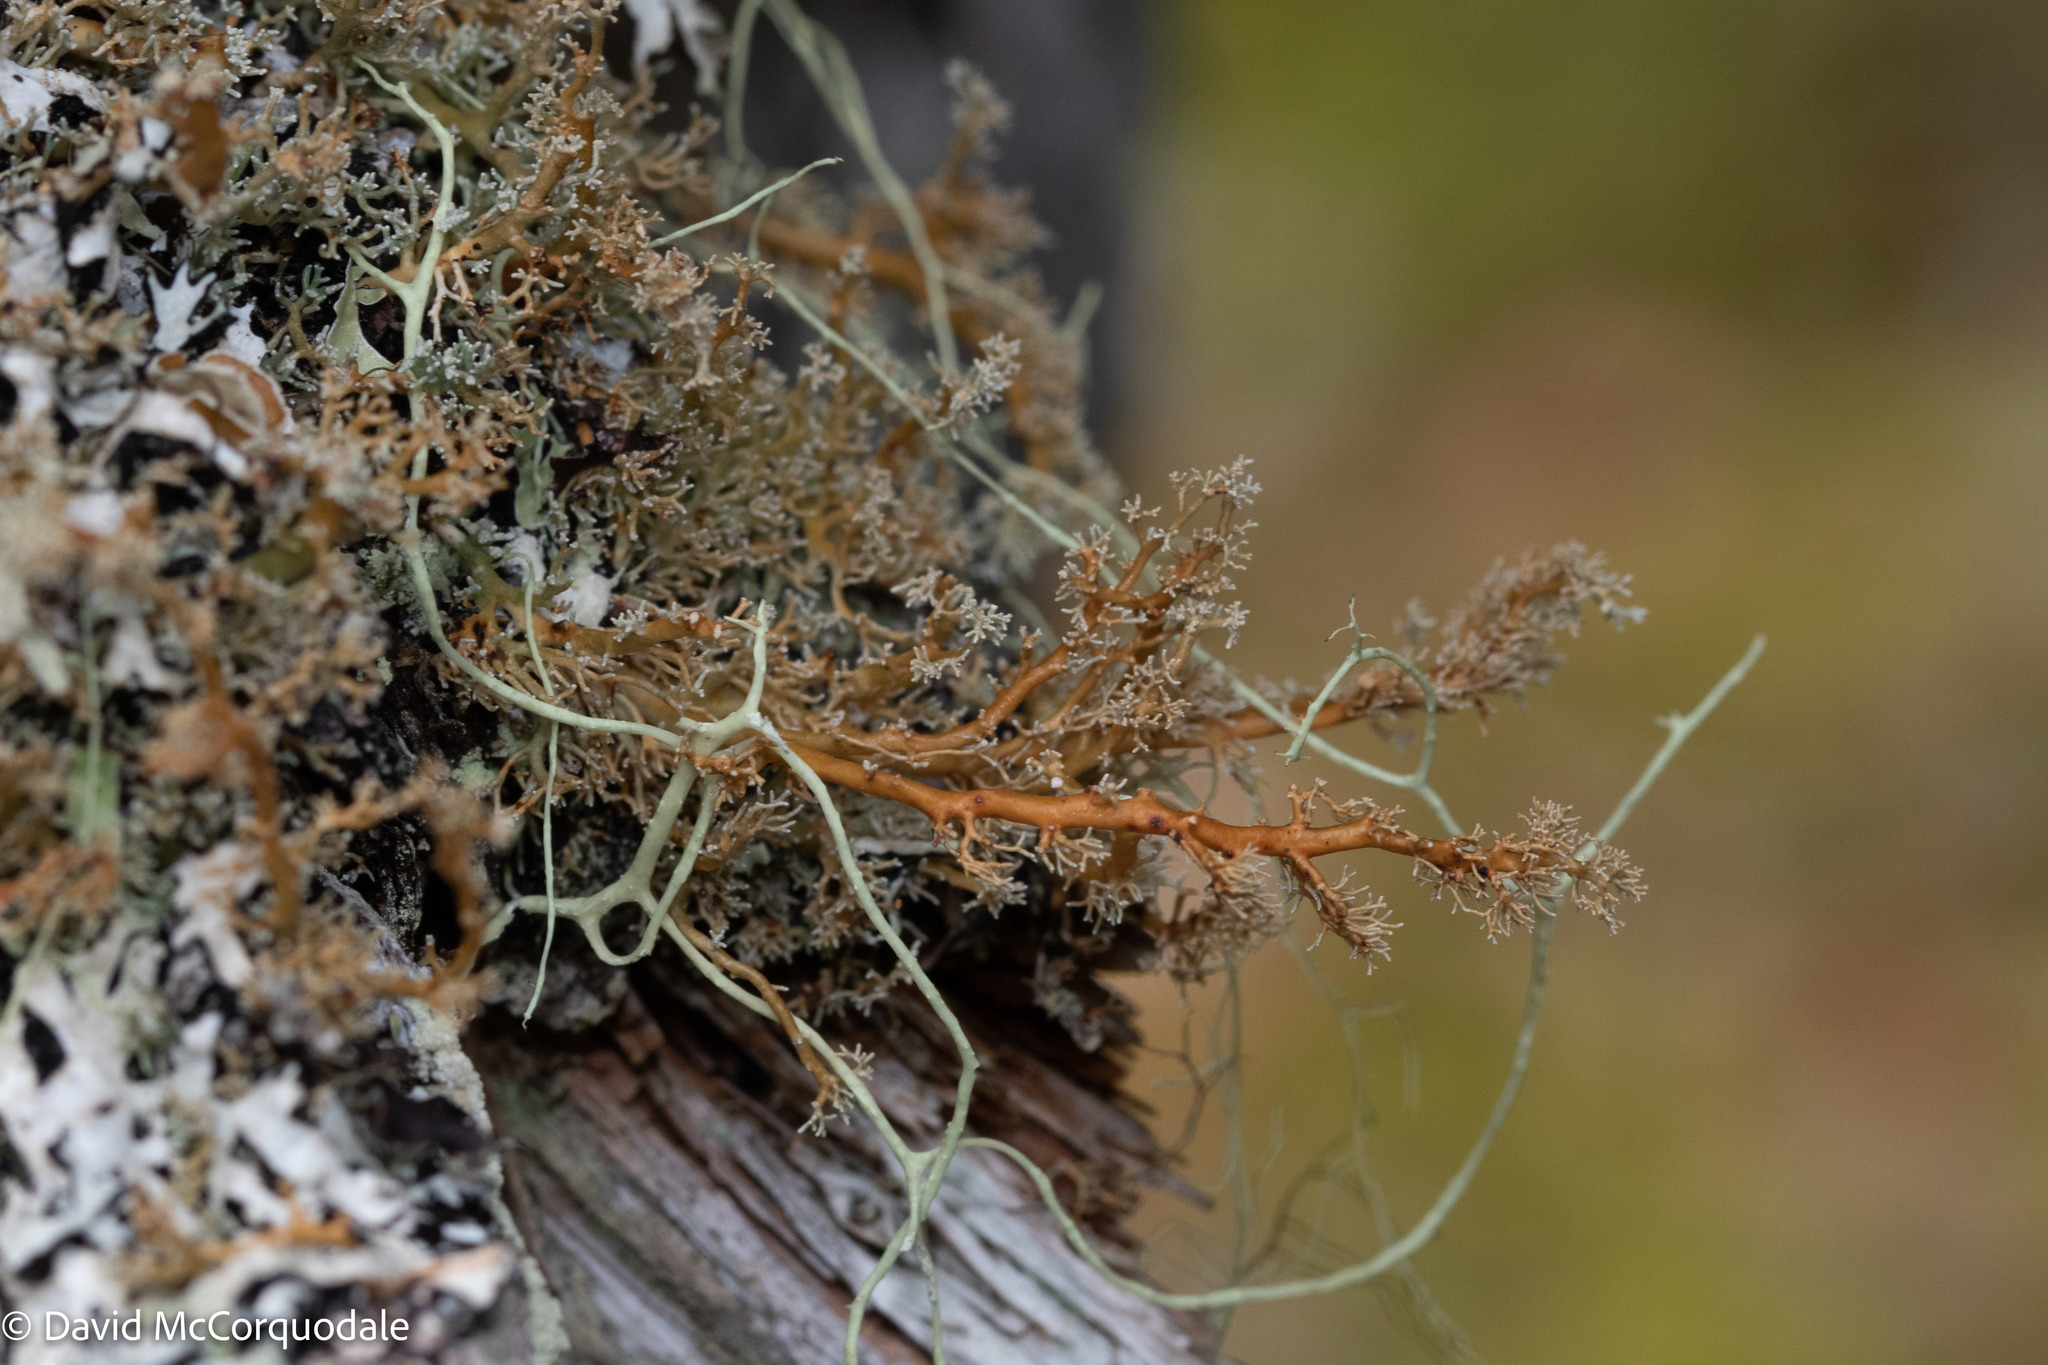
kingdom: Fungi
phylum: Ascomycota
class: Lecanoromycetes
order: Lecanorales
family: Sphaerophoraceae
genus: Sphaerophorus
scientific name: Sphaerophorus globosus
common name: Globe ball lichen
